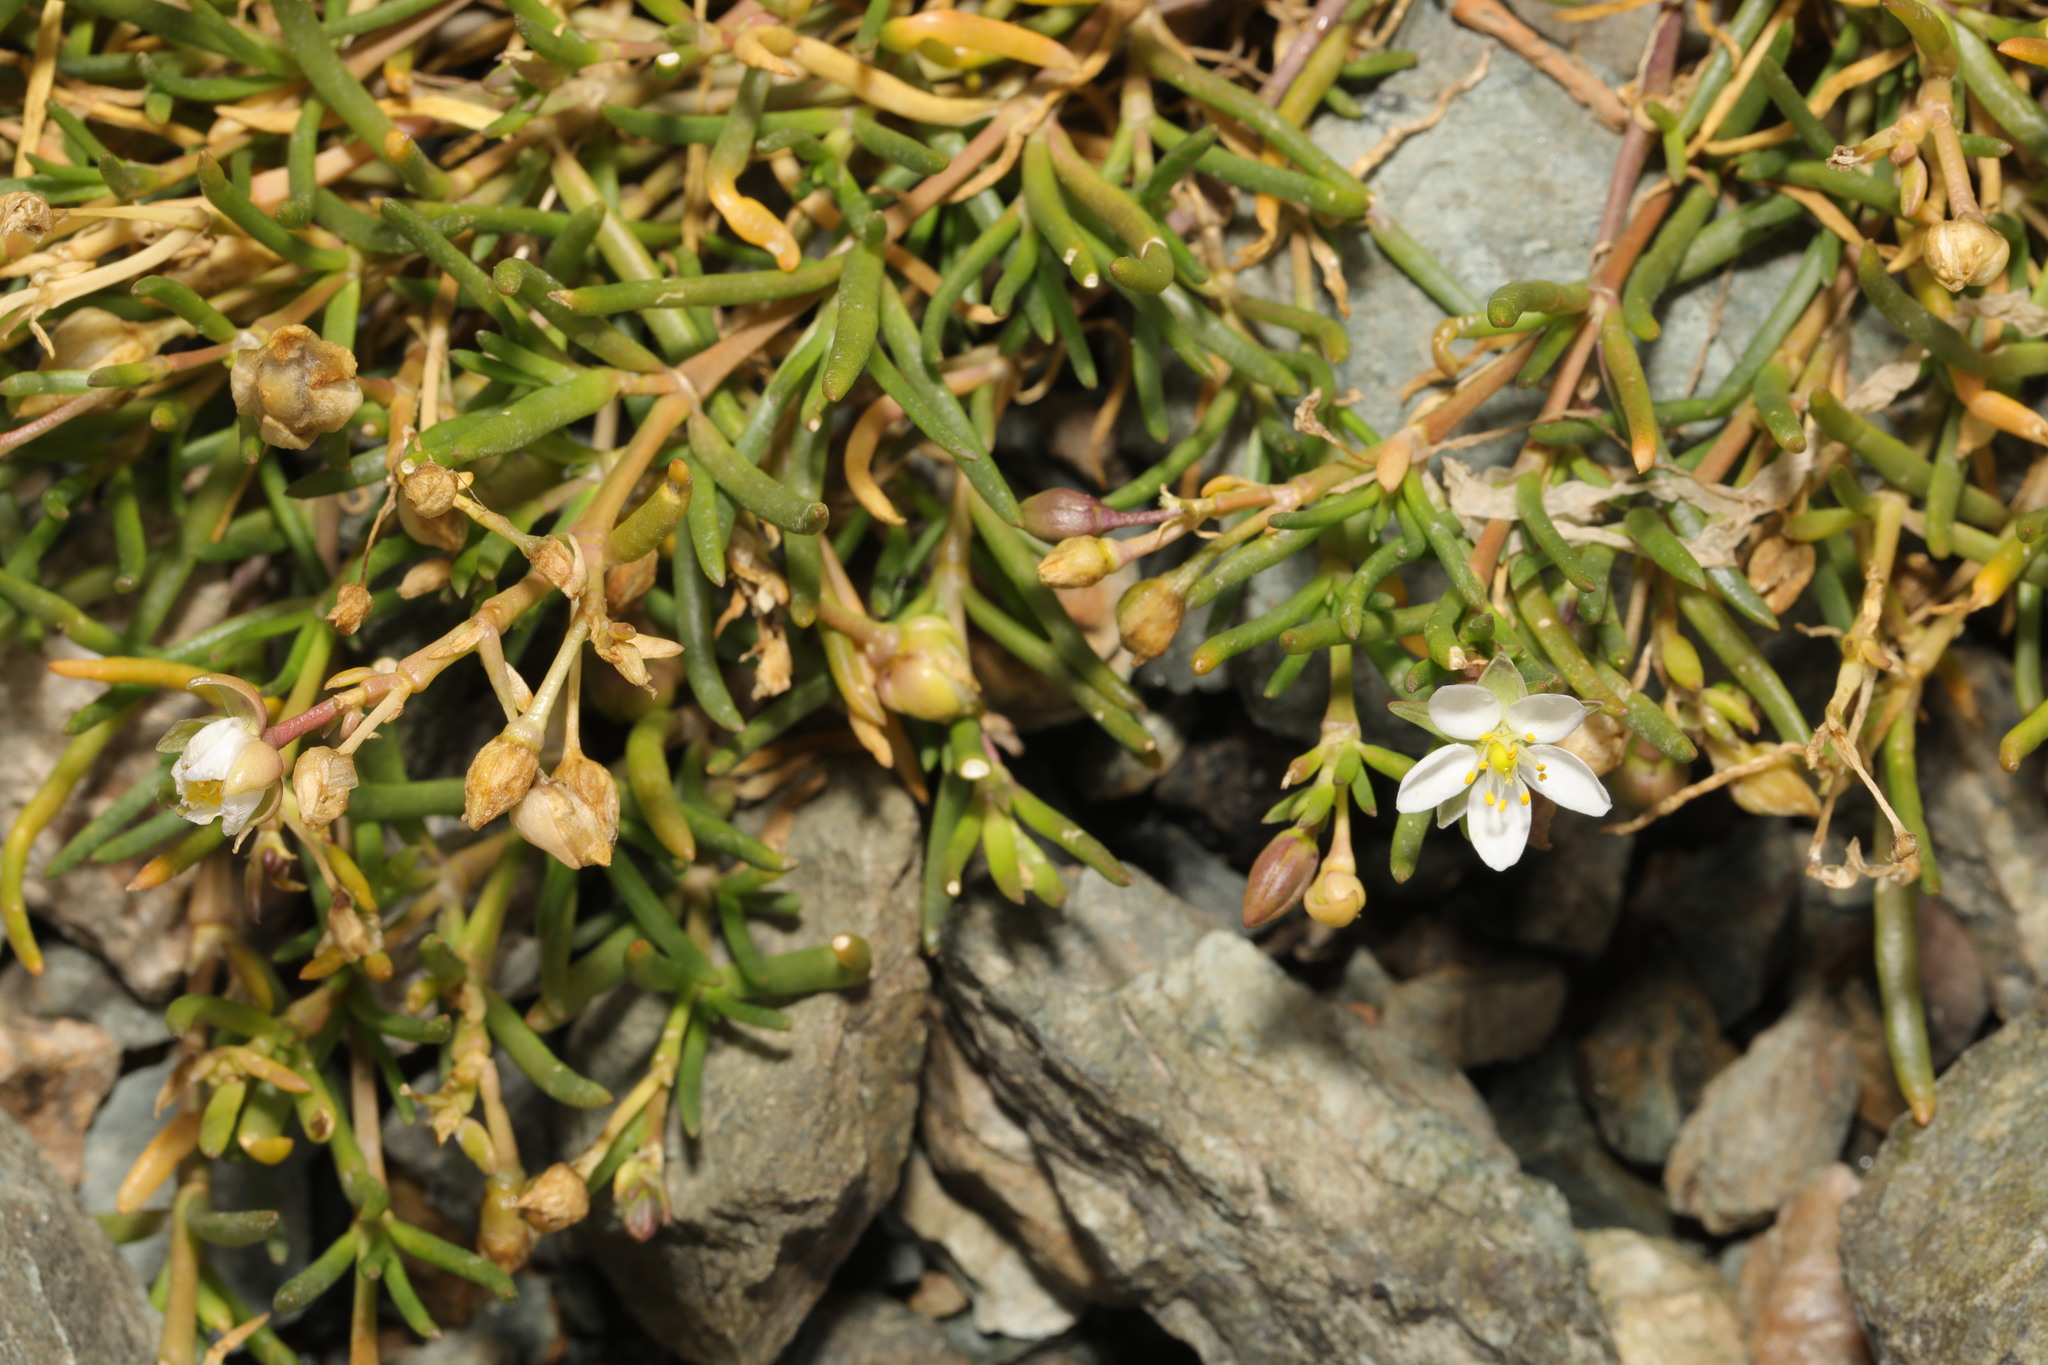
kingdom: Plantae
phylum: Tracheophyta
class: Magnoliopsida
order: Caryophyllales
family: Caryophyllaceae
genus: Spergularia
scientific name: Spergularia media
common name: Greater sea-spurrey
